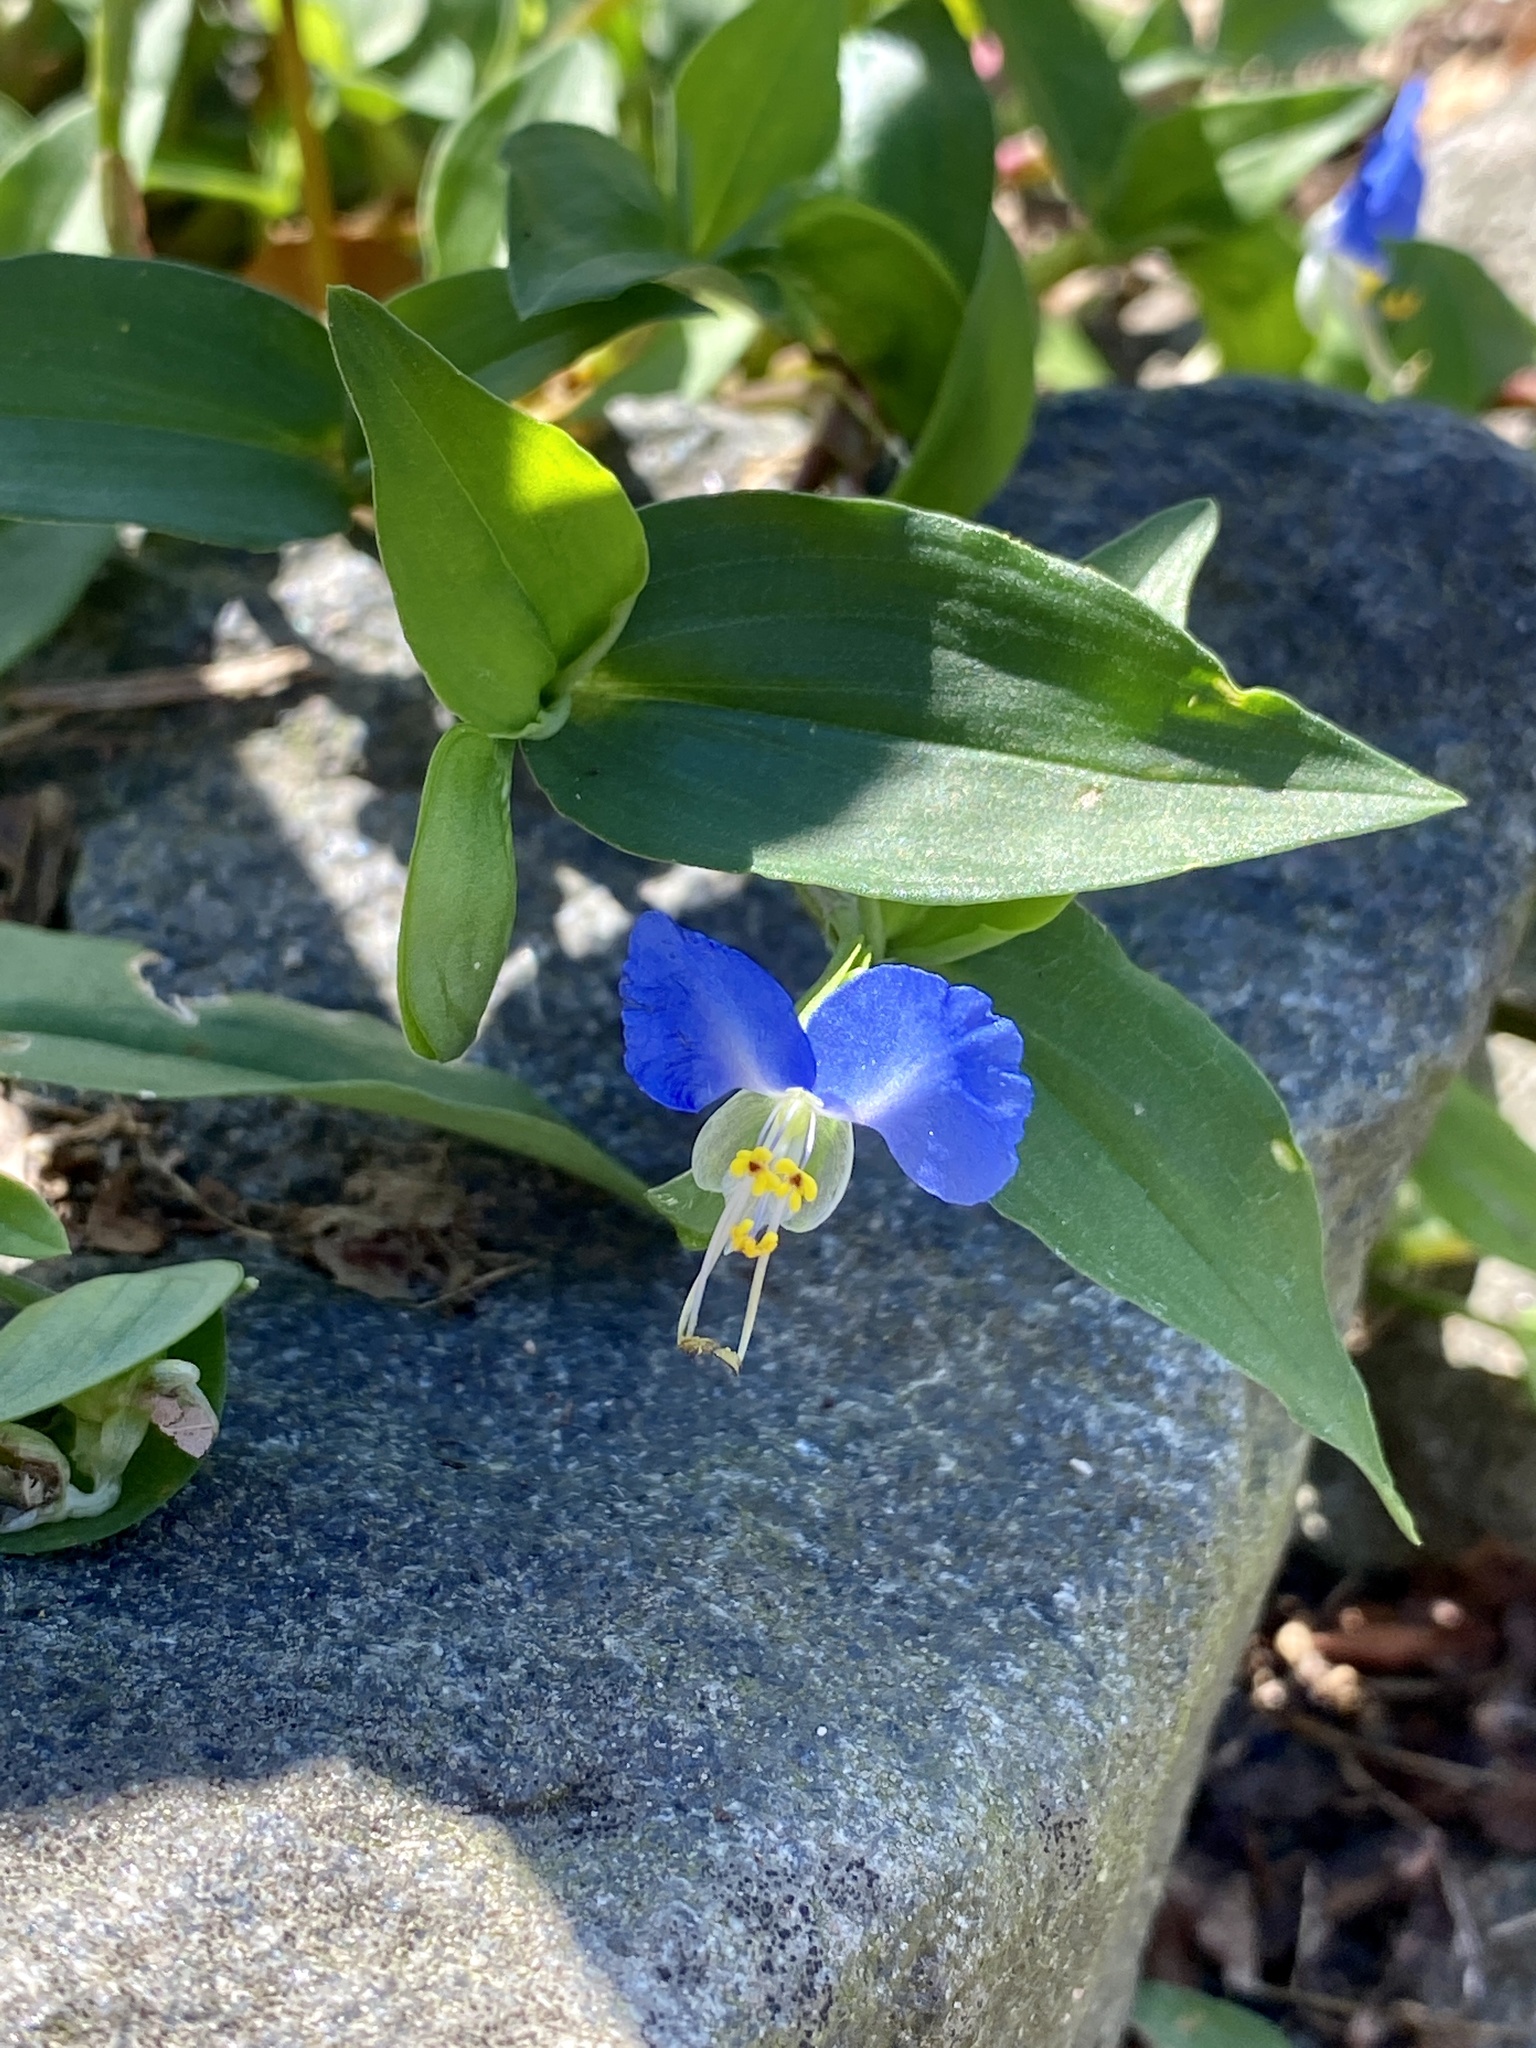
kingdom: Plantae
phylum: Tracheophyta
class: Liliopsida
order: Commelinales
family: Commelinaceae
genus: Commelina
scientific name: Commelina communis
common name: Asiatic dayflower
